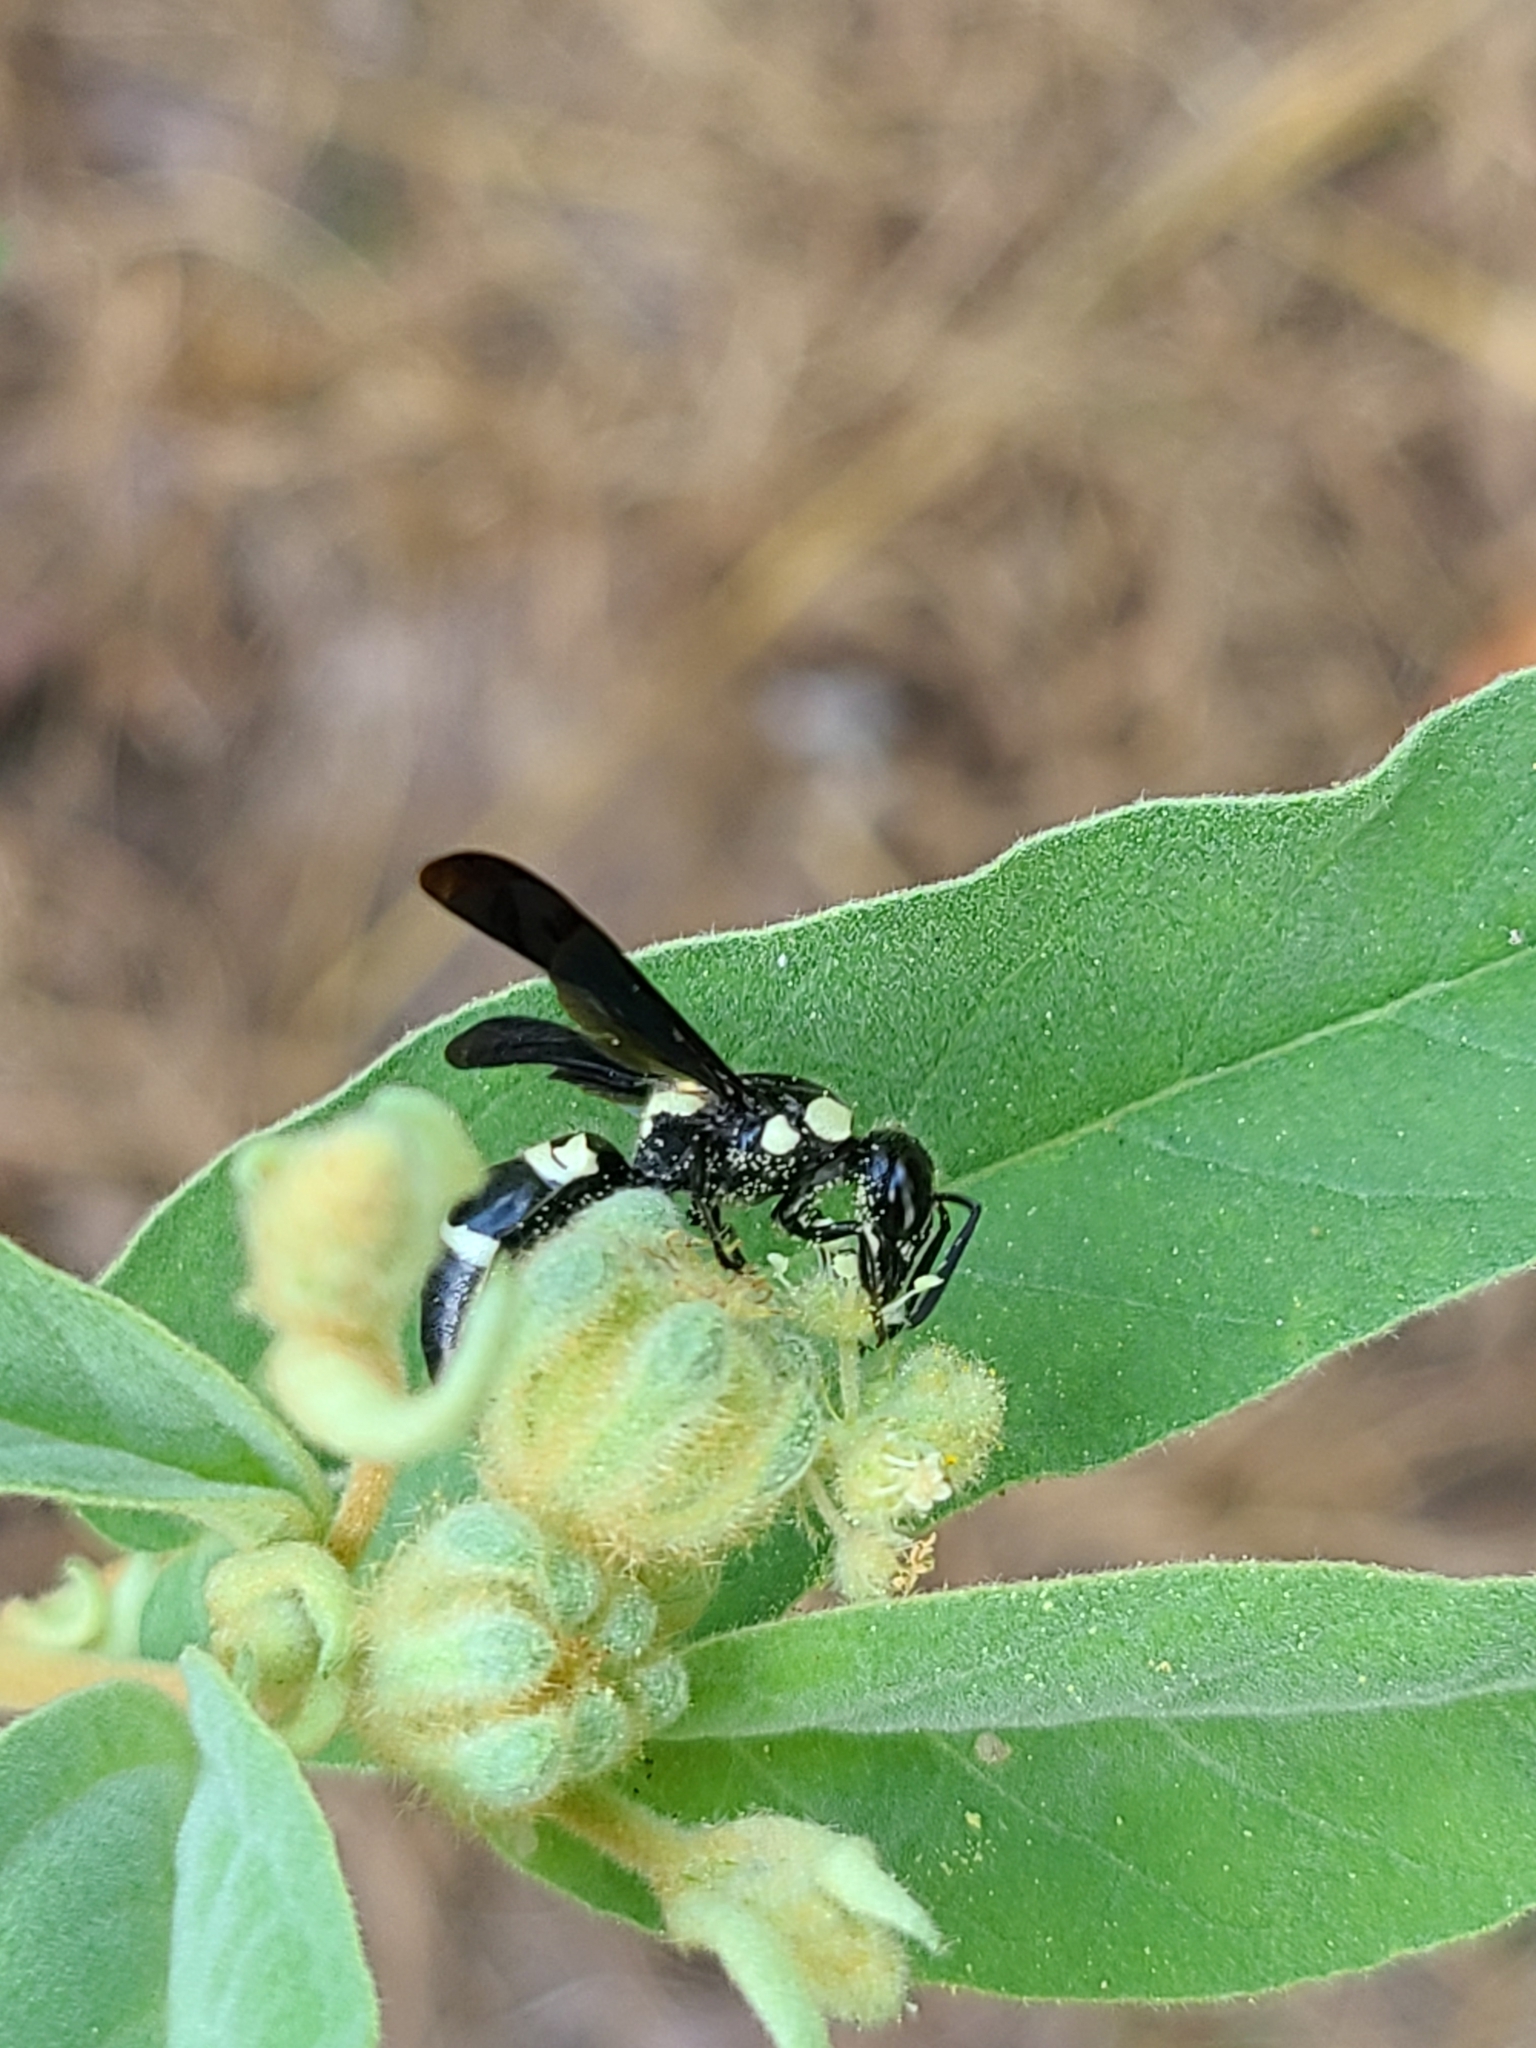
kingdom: Animalia
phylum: Arthropoda
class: Insecta
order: Hymenoptera
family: Eumenidae
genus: Pseudodynerus
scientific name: Pseudodynerus quadrisectus
